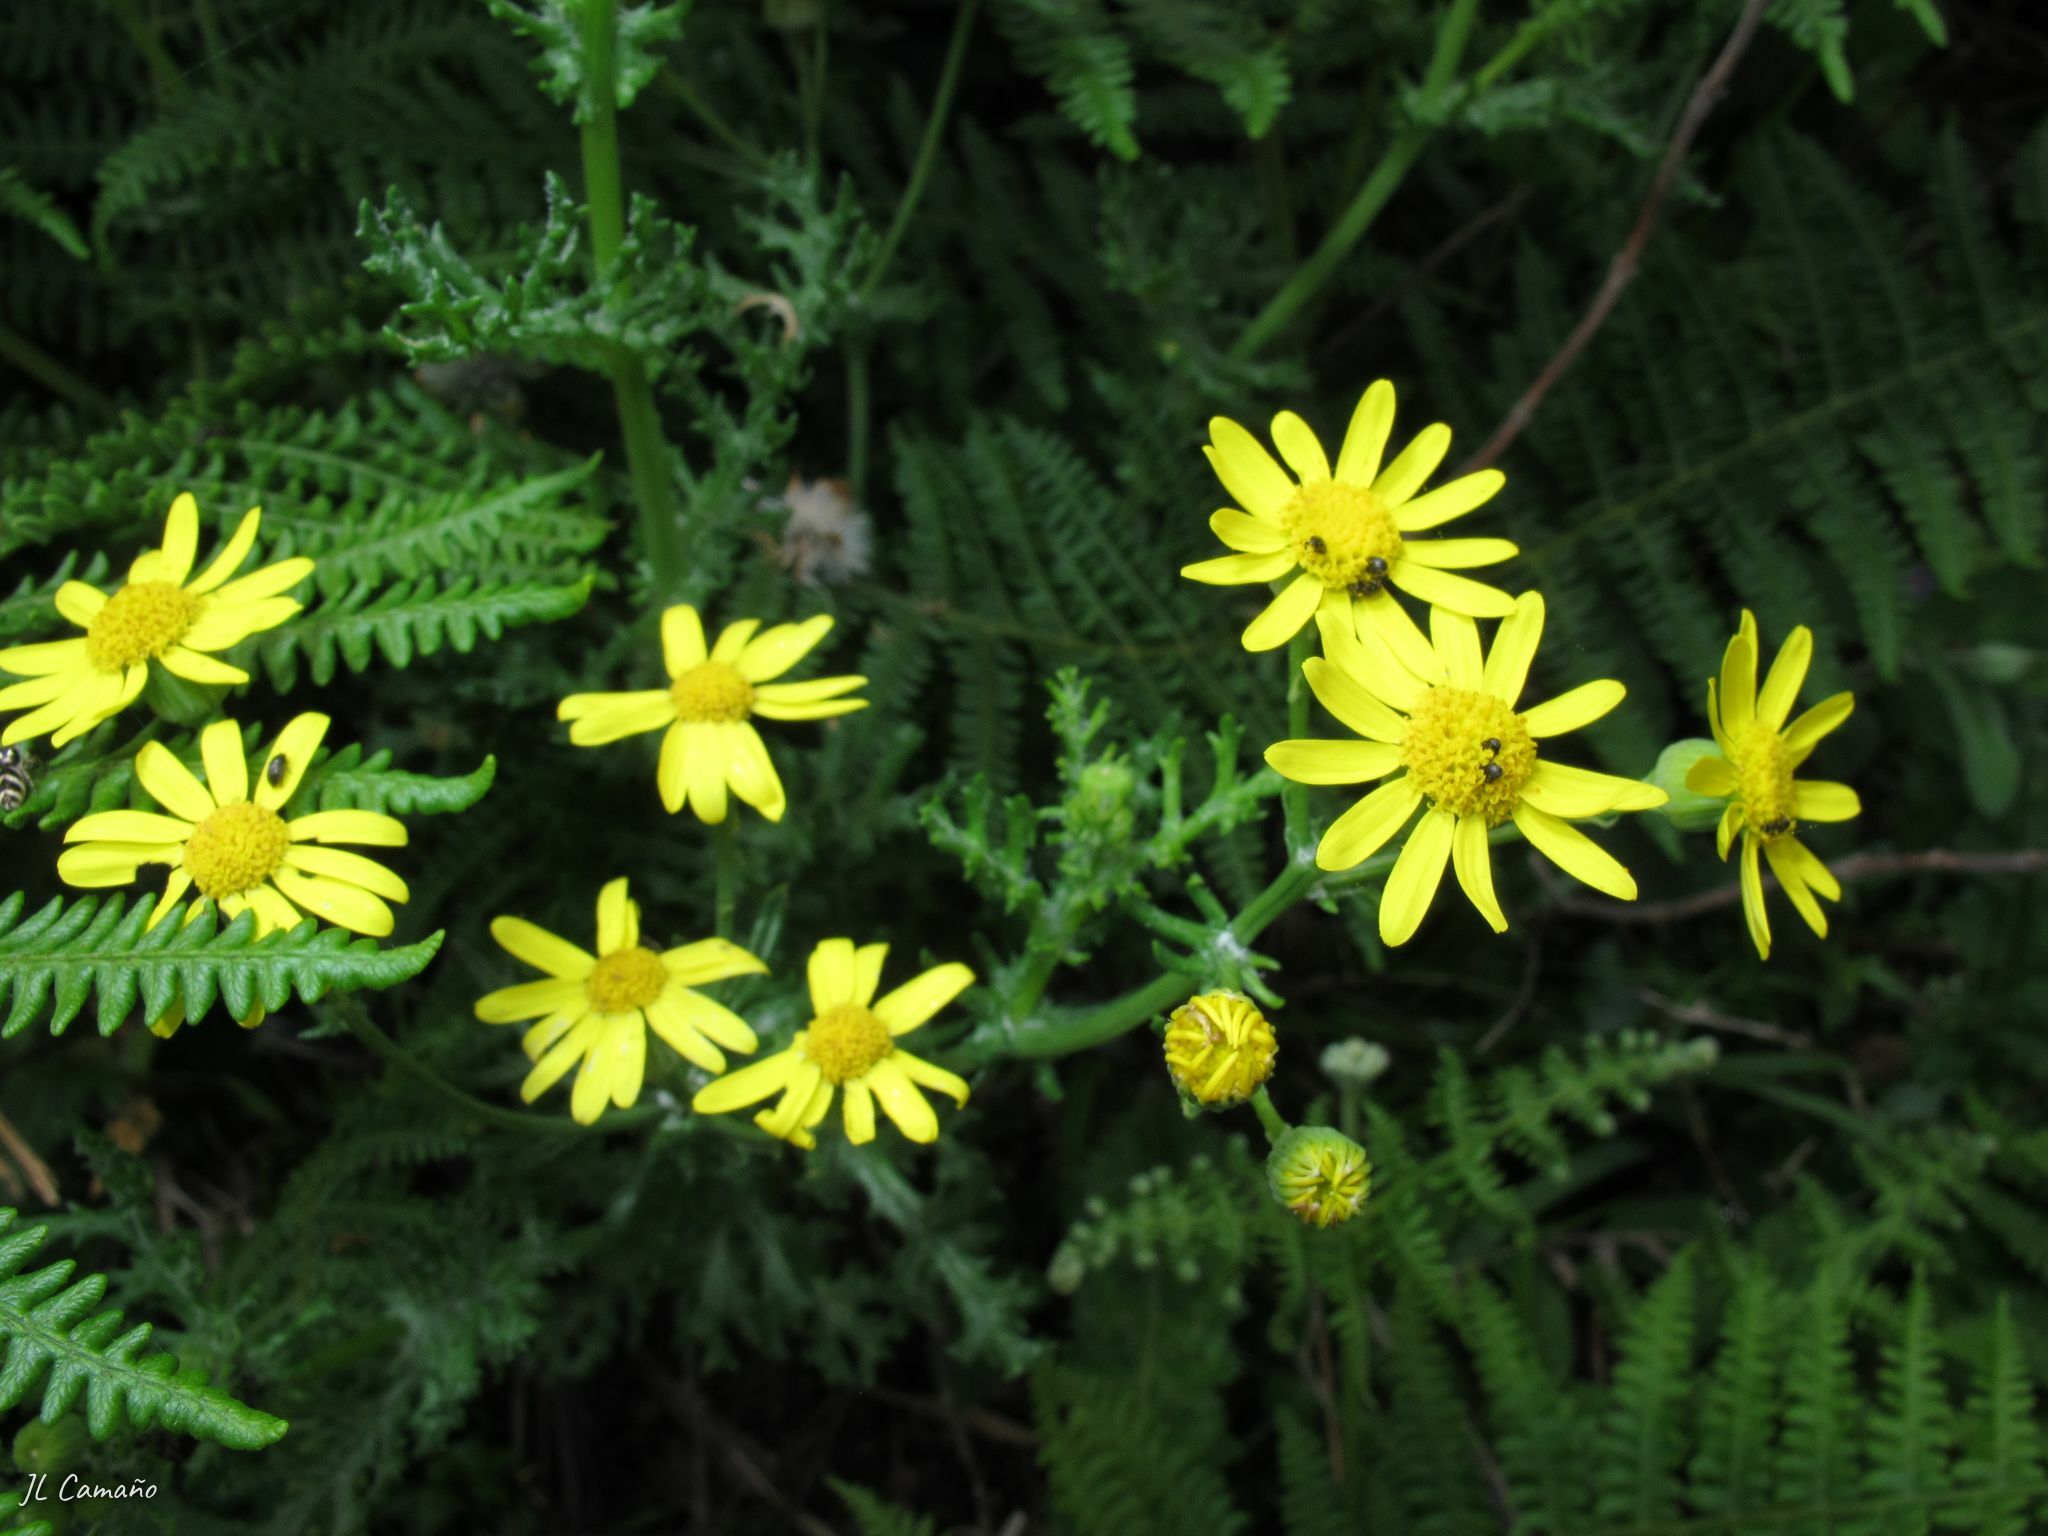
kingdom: Plantae
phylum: Tracheophyta
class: Magnoliopsida
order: Asterales
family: Asteraceae
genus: Senecio
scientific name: Senecio gallicus
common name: French groundsel
